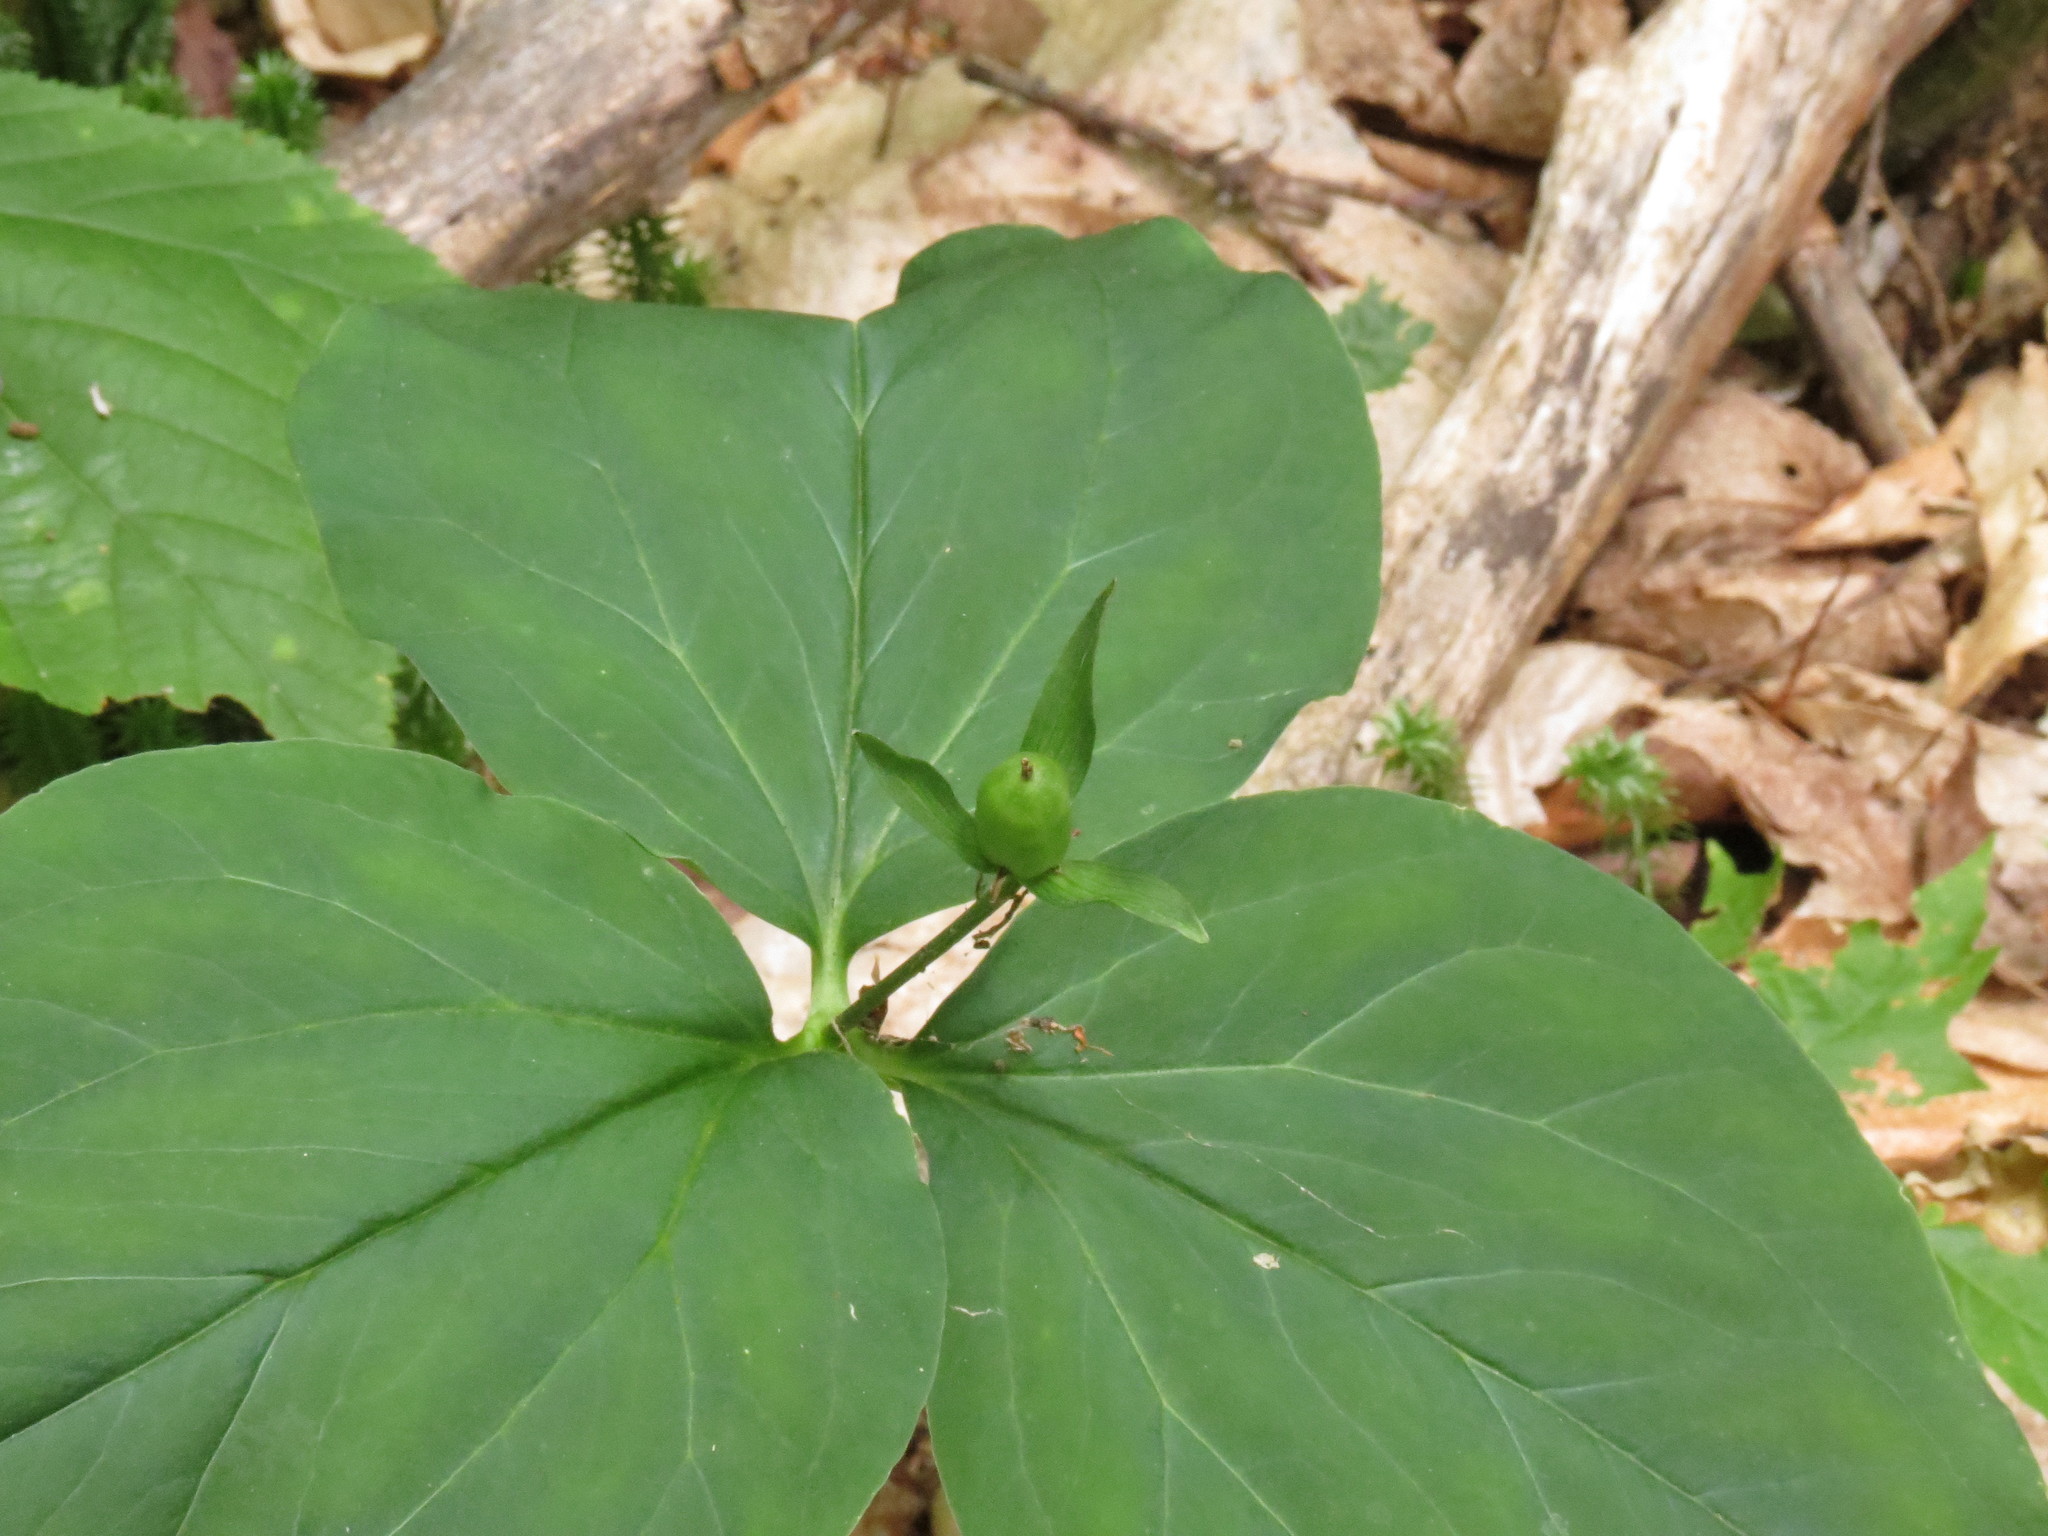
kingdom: Plantae
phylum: Tracheophyta
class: Liliopsida
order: Liliales
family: Melanthiaceae
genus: Trillium
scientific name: Trillium undulatum
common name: Paint trillium
